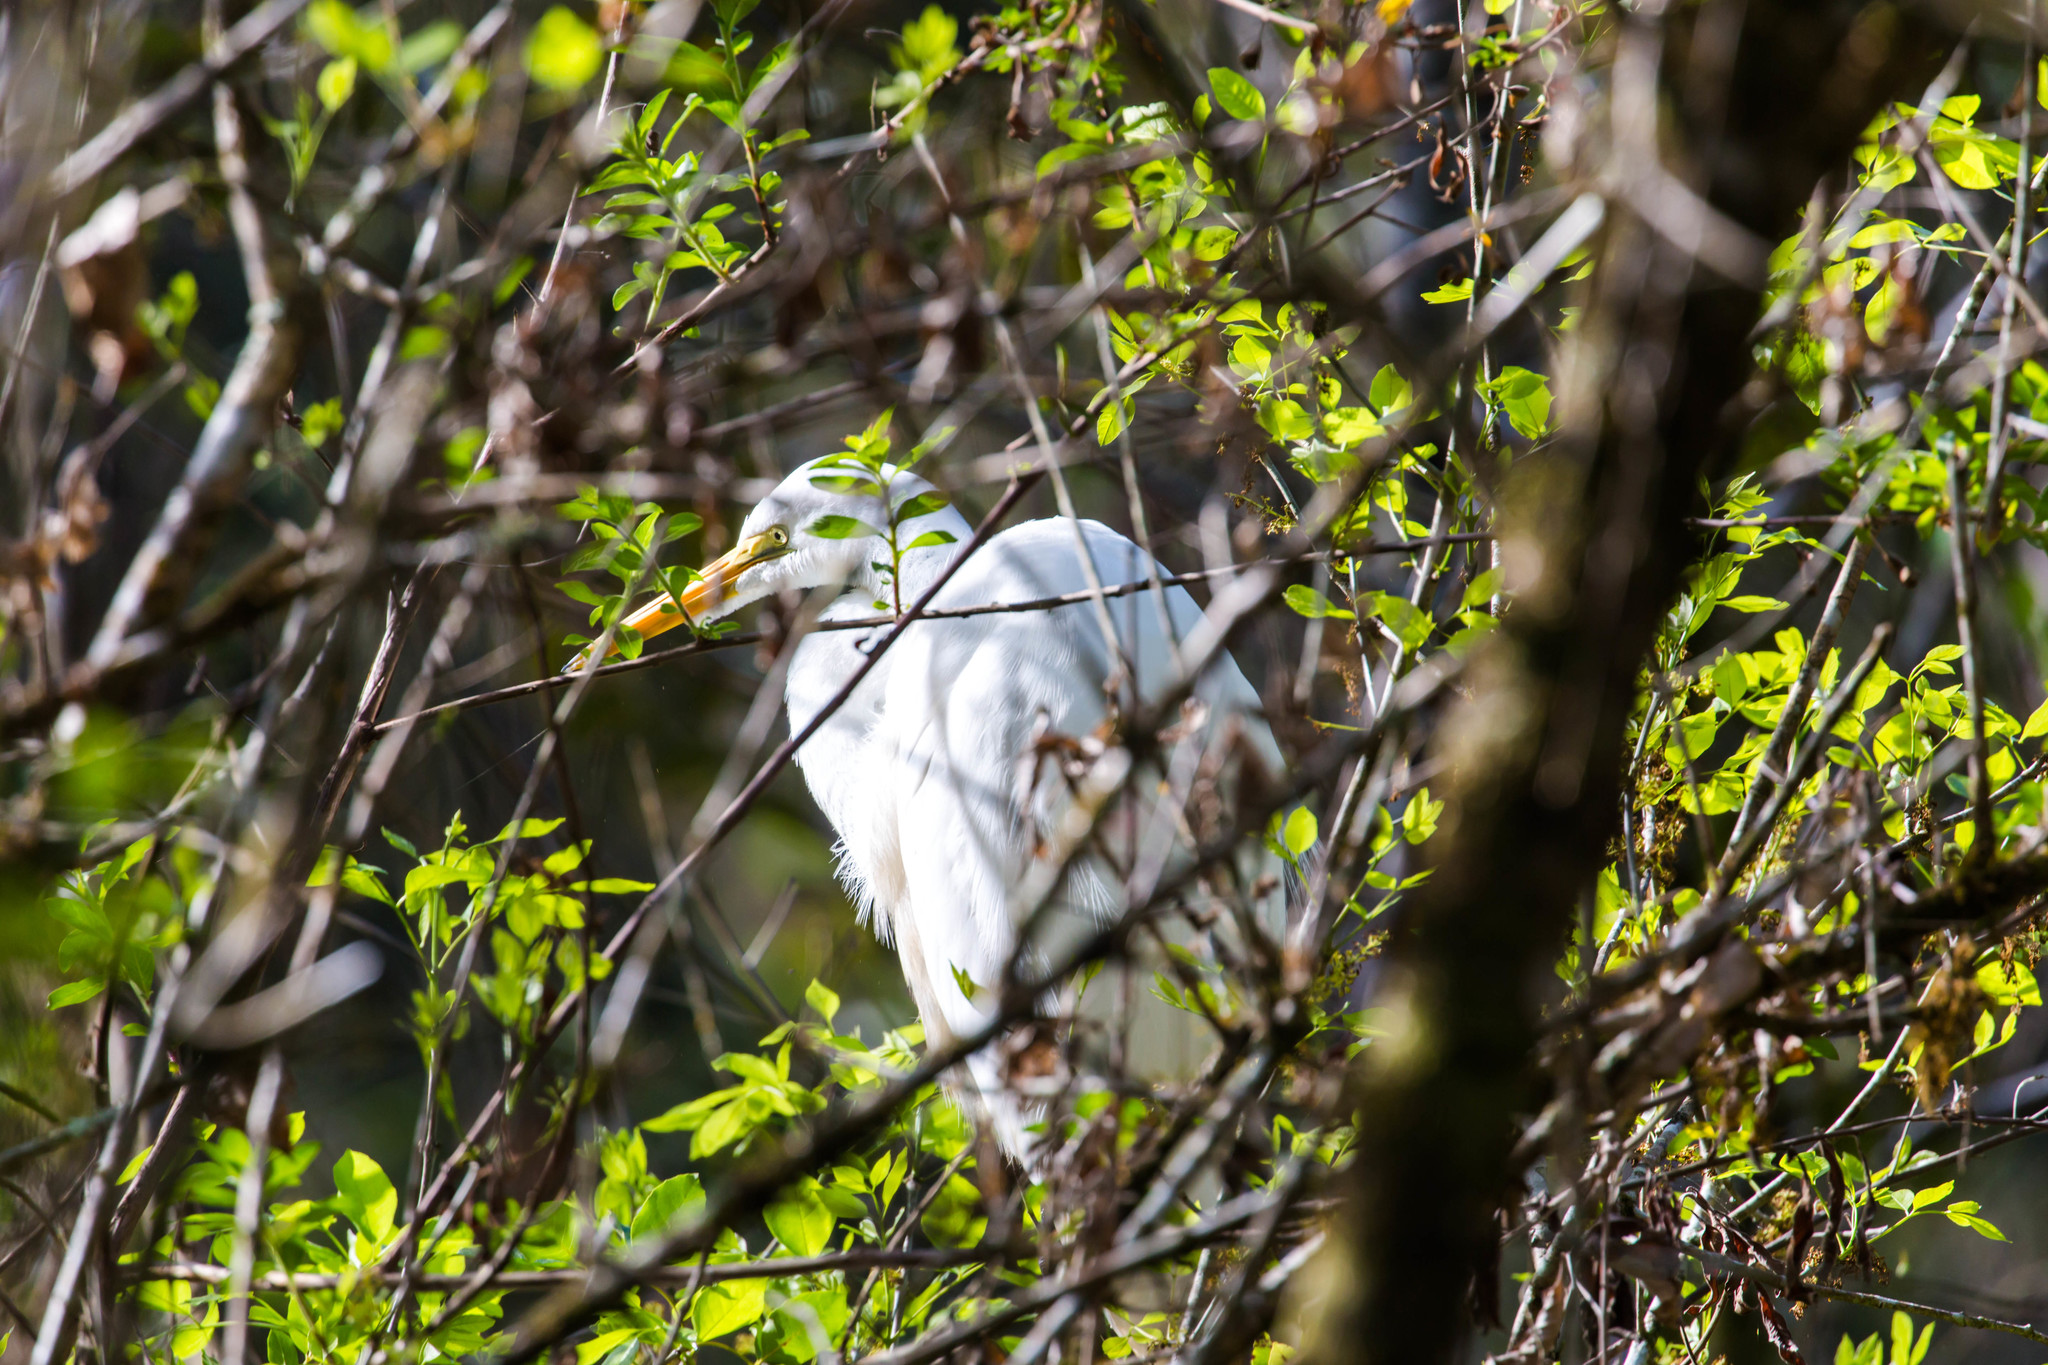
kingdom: Animalia
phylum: Chordata
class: Aves
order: Pelecaniformes
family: Ardeidae
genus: Ardea
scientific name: Ardea alba
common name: Great egret
